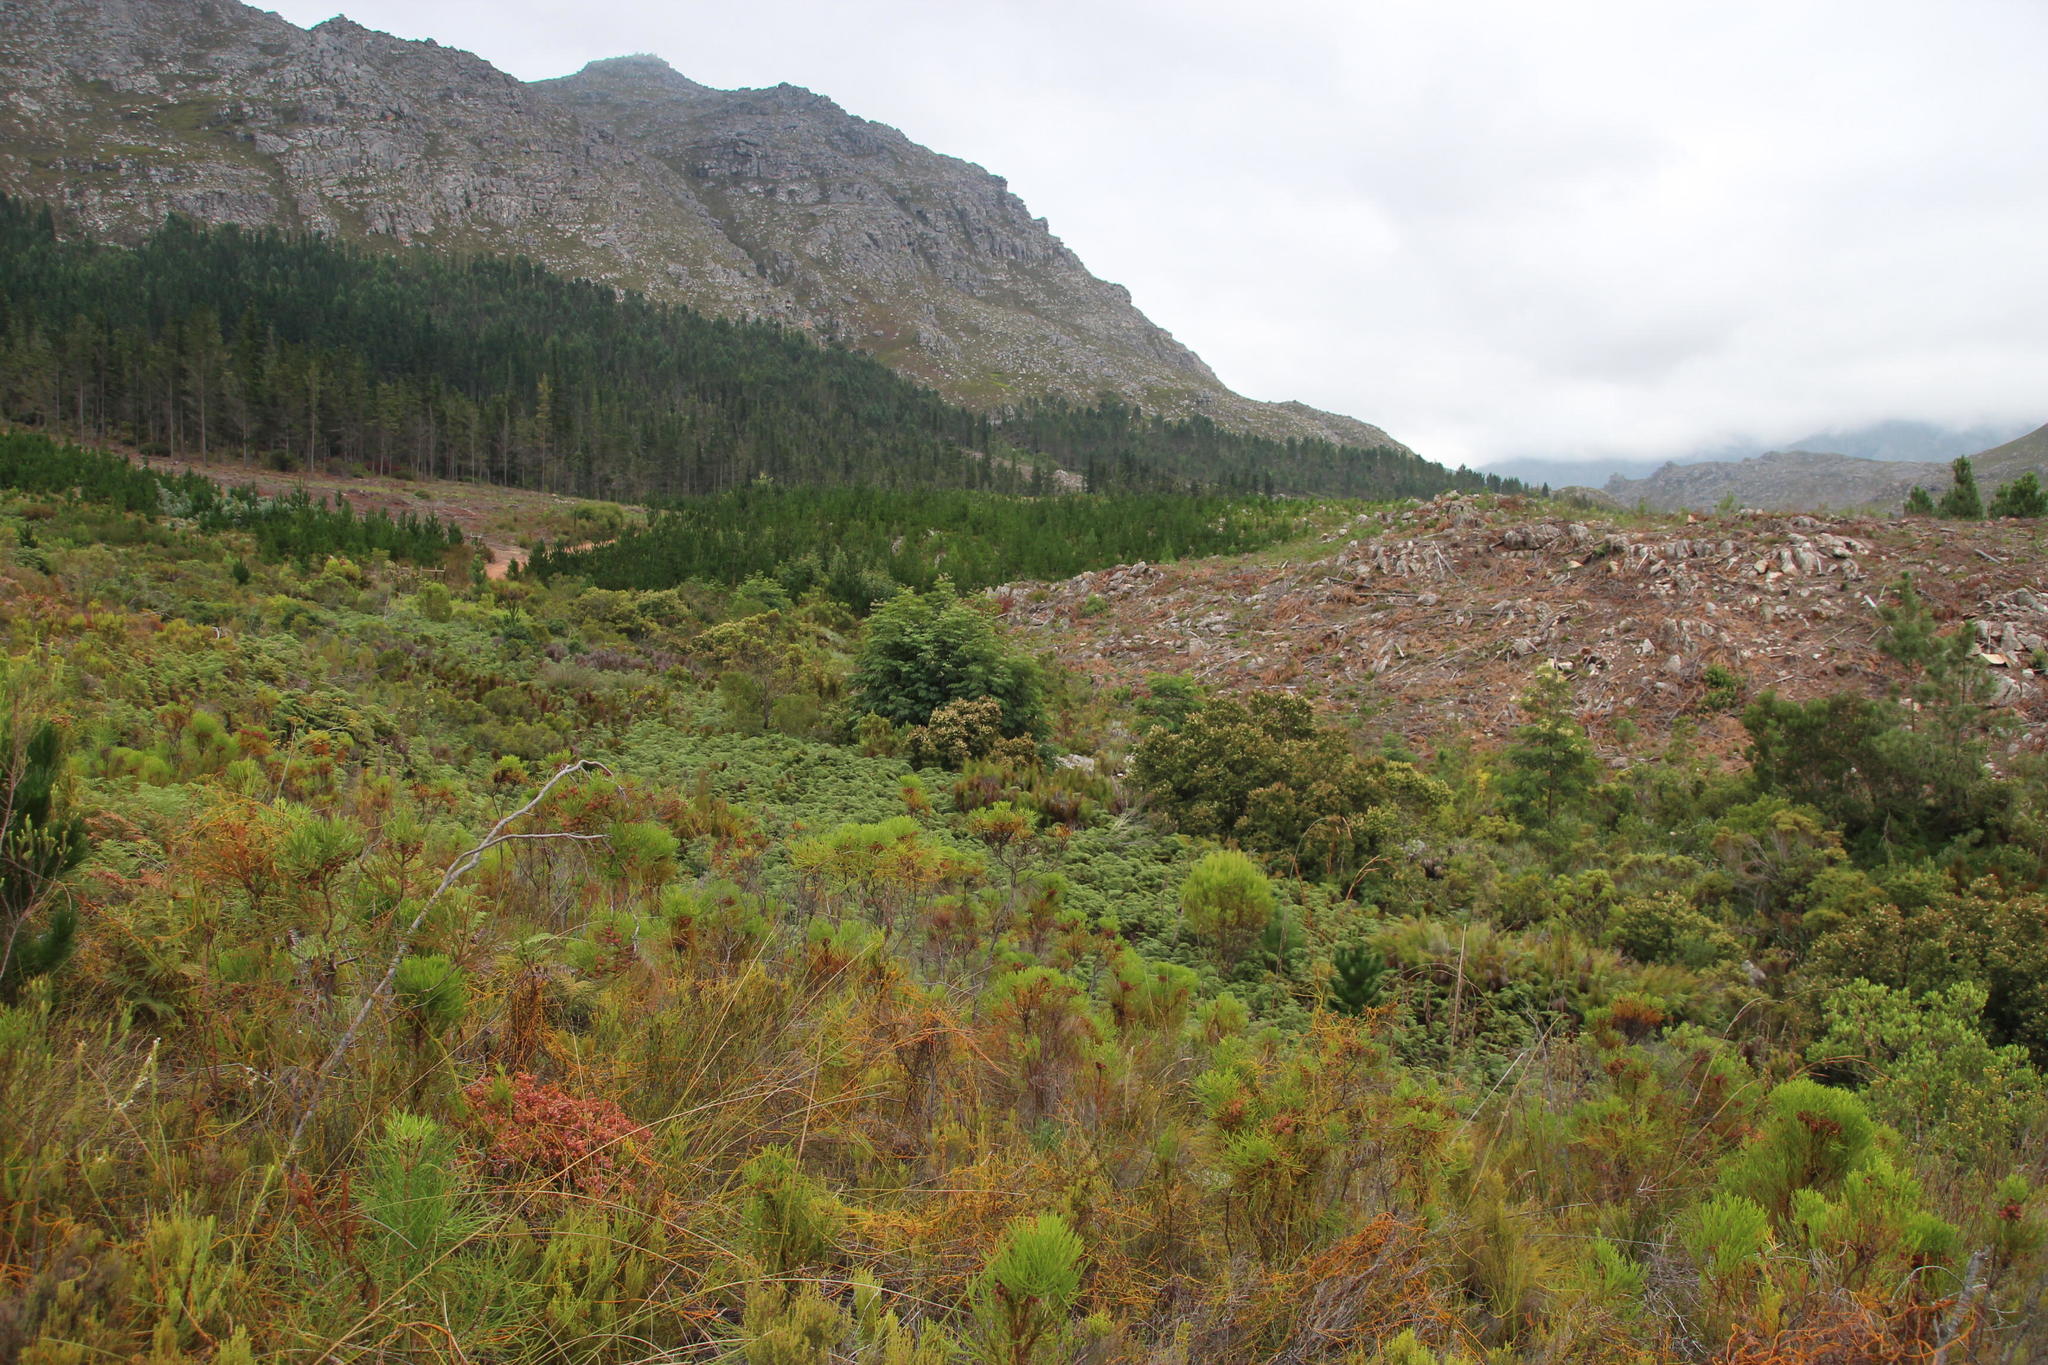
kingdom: Plantae
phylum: Tracheophyta
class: Magnoliopsida
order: Fabales
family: Fabaceae
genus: Acacia
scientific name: Acacia elata
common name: Cedar wattle
